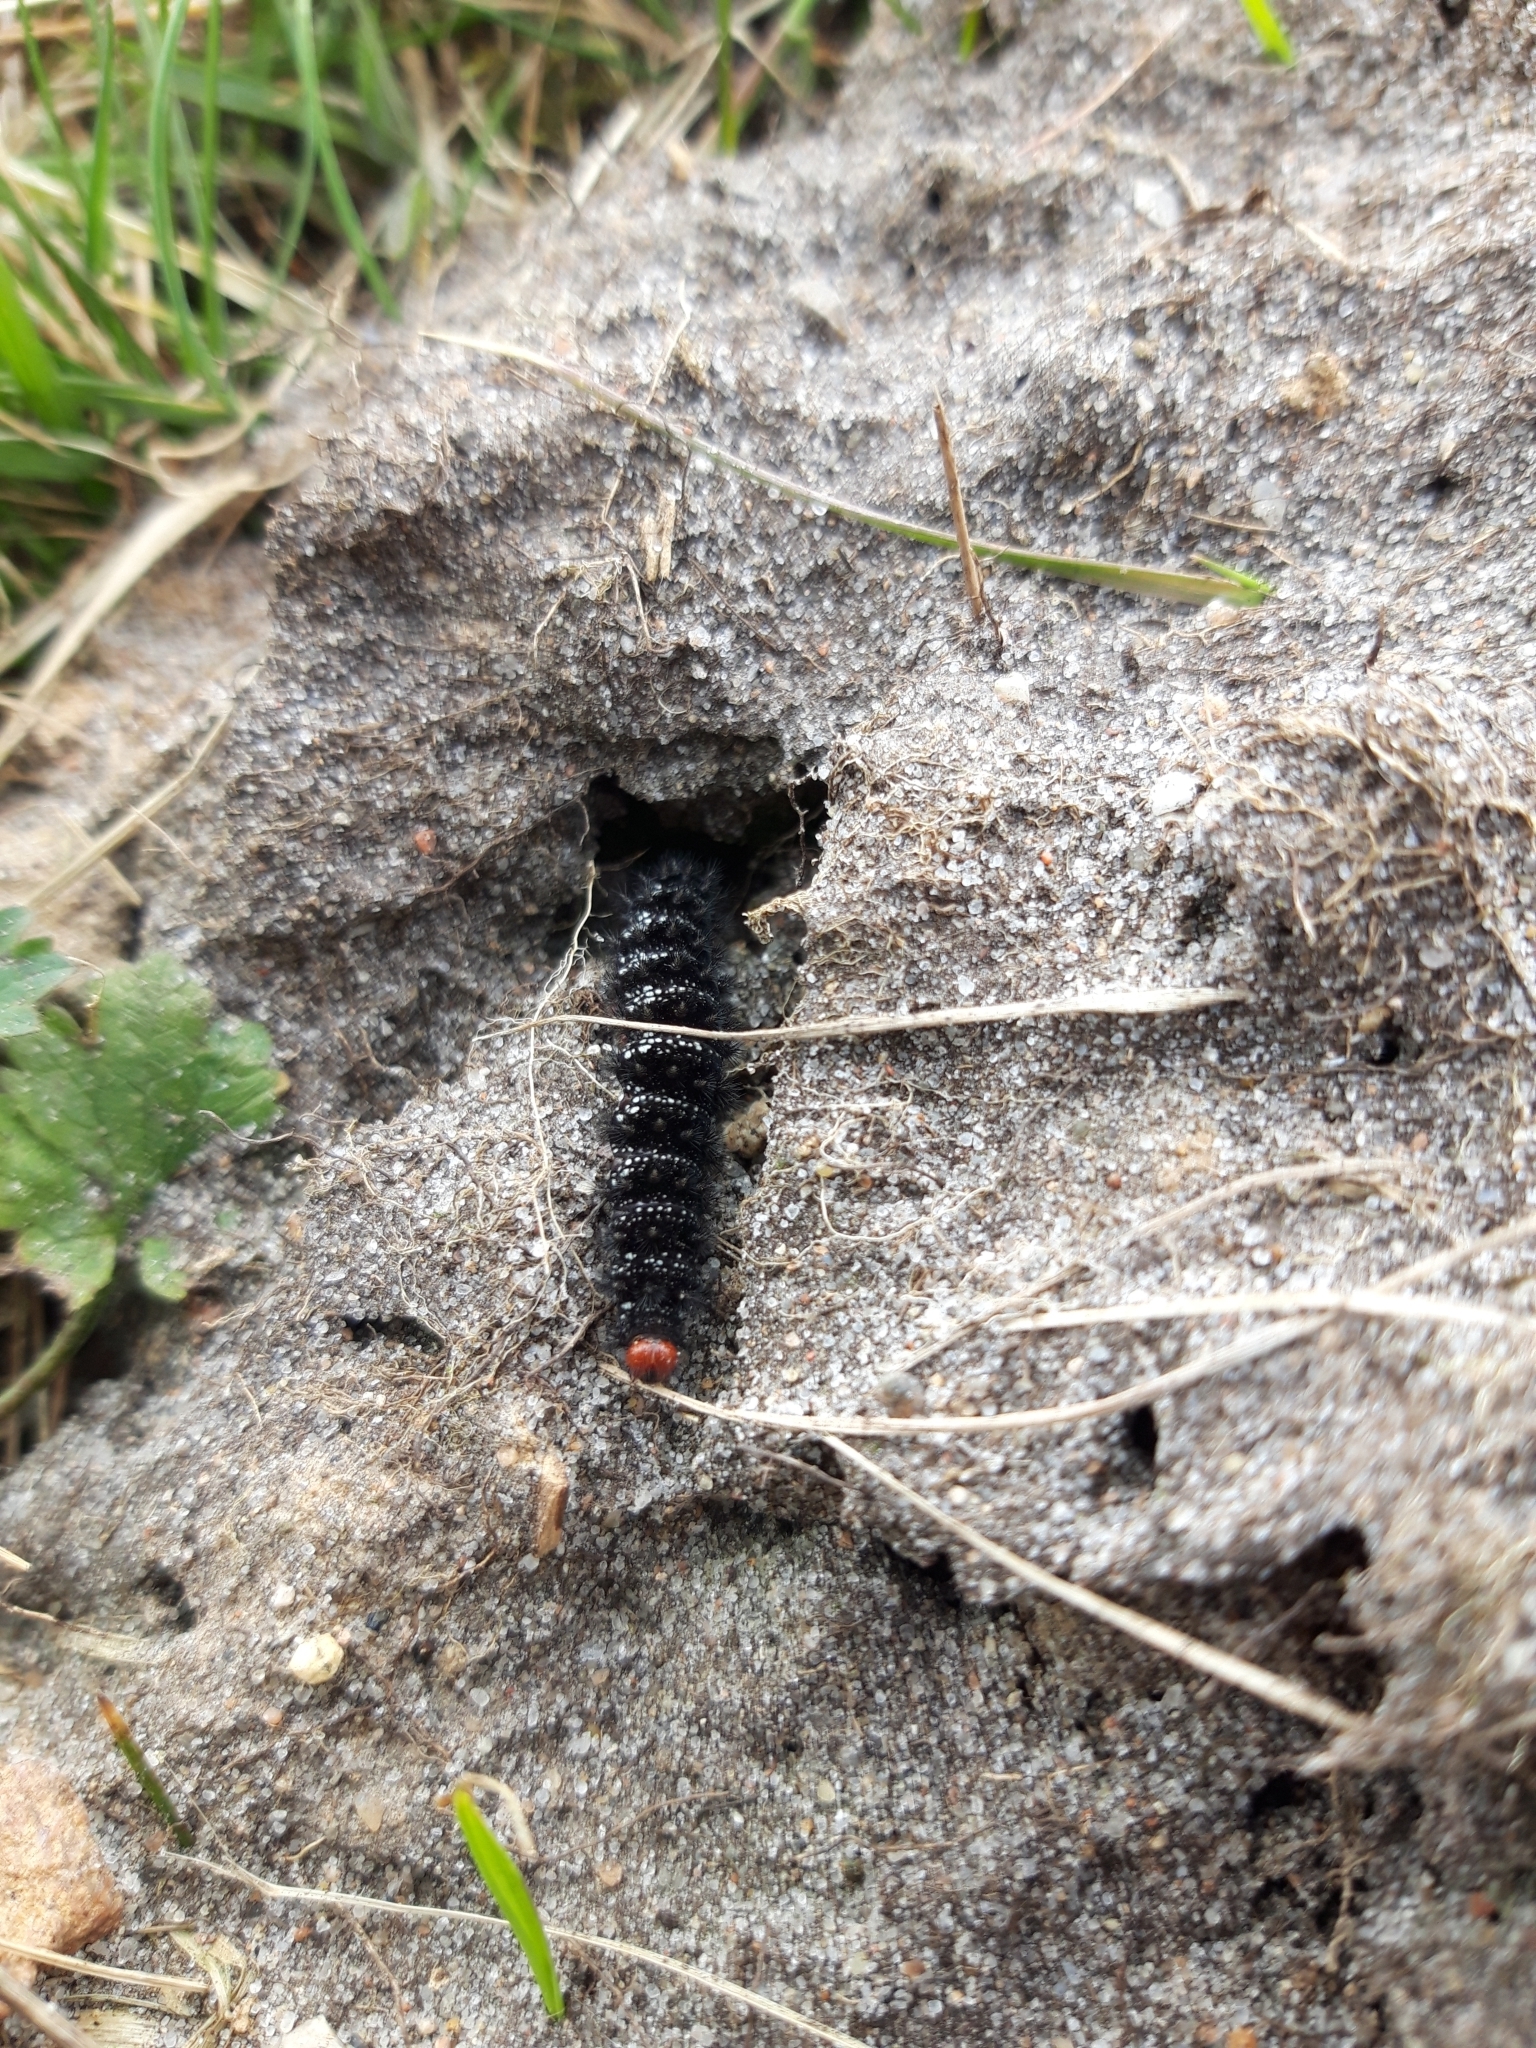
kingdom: Animalia
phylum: Arthropoda
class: Insecta
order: Lepidoptera
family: Nymphalidae
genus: Melitaea
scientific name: Melitaea cinxia
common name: Glanville fritillary
